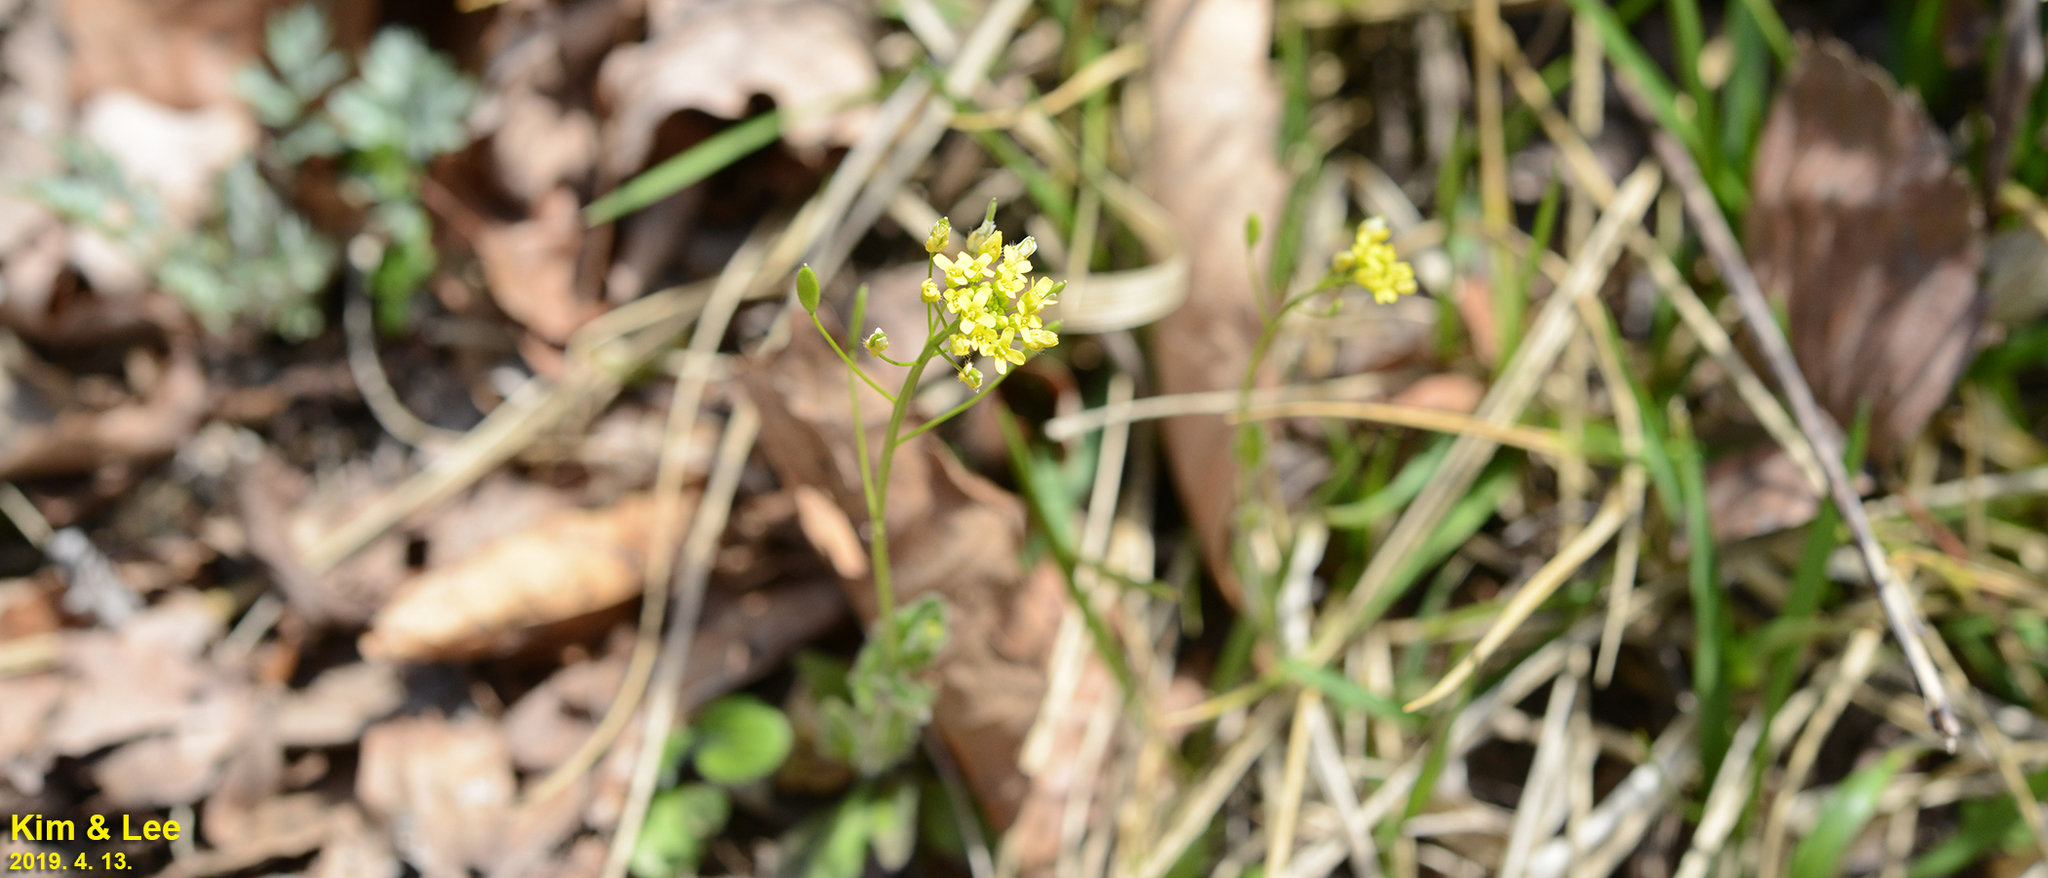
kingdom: Plantae
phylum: Tracheophyta
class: Magnoliopsida
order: Brassicales
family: Brassicaceae
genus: Draba
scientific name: Draba nemorosa
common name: Wood whitlow-grass
